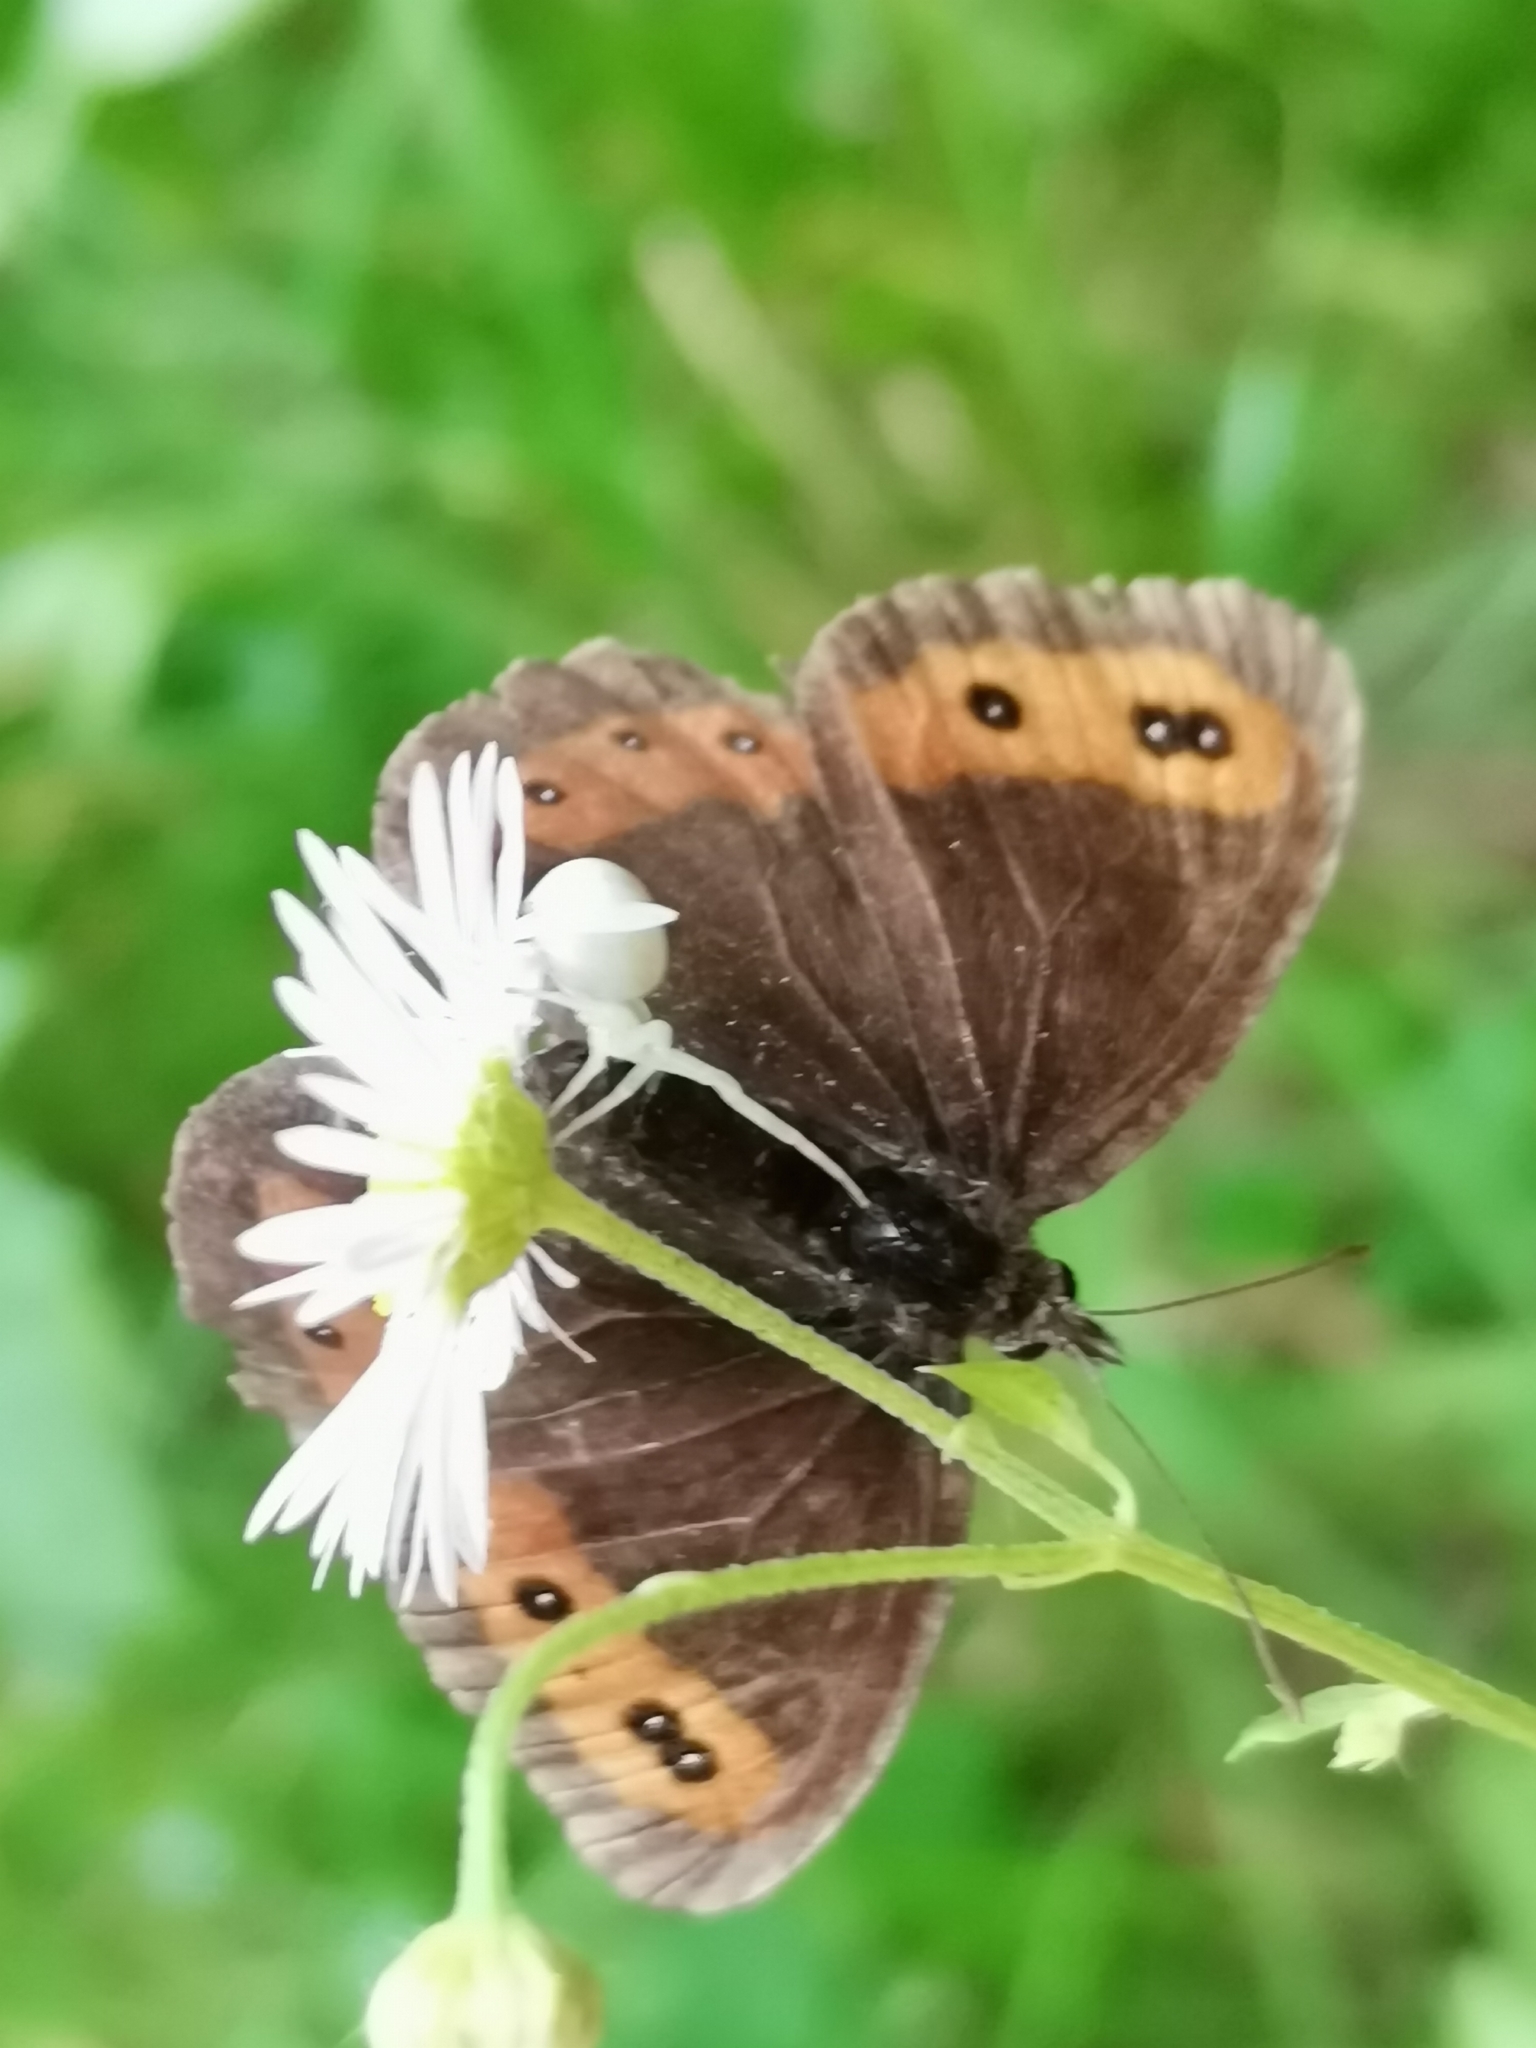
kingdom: Animalia
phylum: Arthropoda
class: Insecta
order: Lepidoptera
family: Nymphalidae
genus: Erebia
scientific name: Erebia ligea
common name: Arran brown
